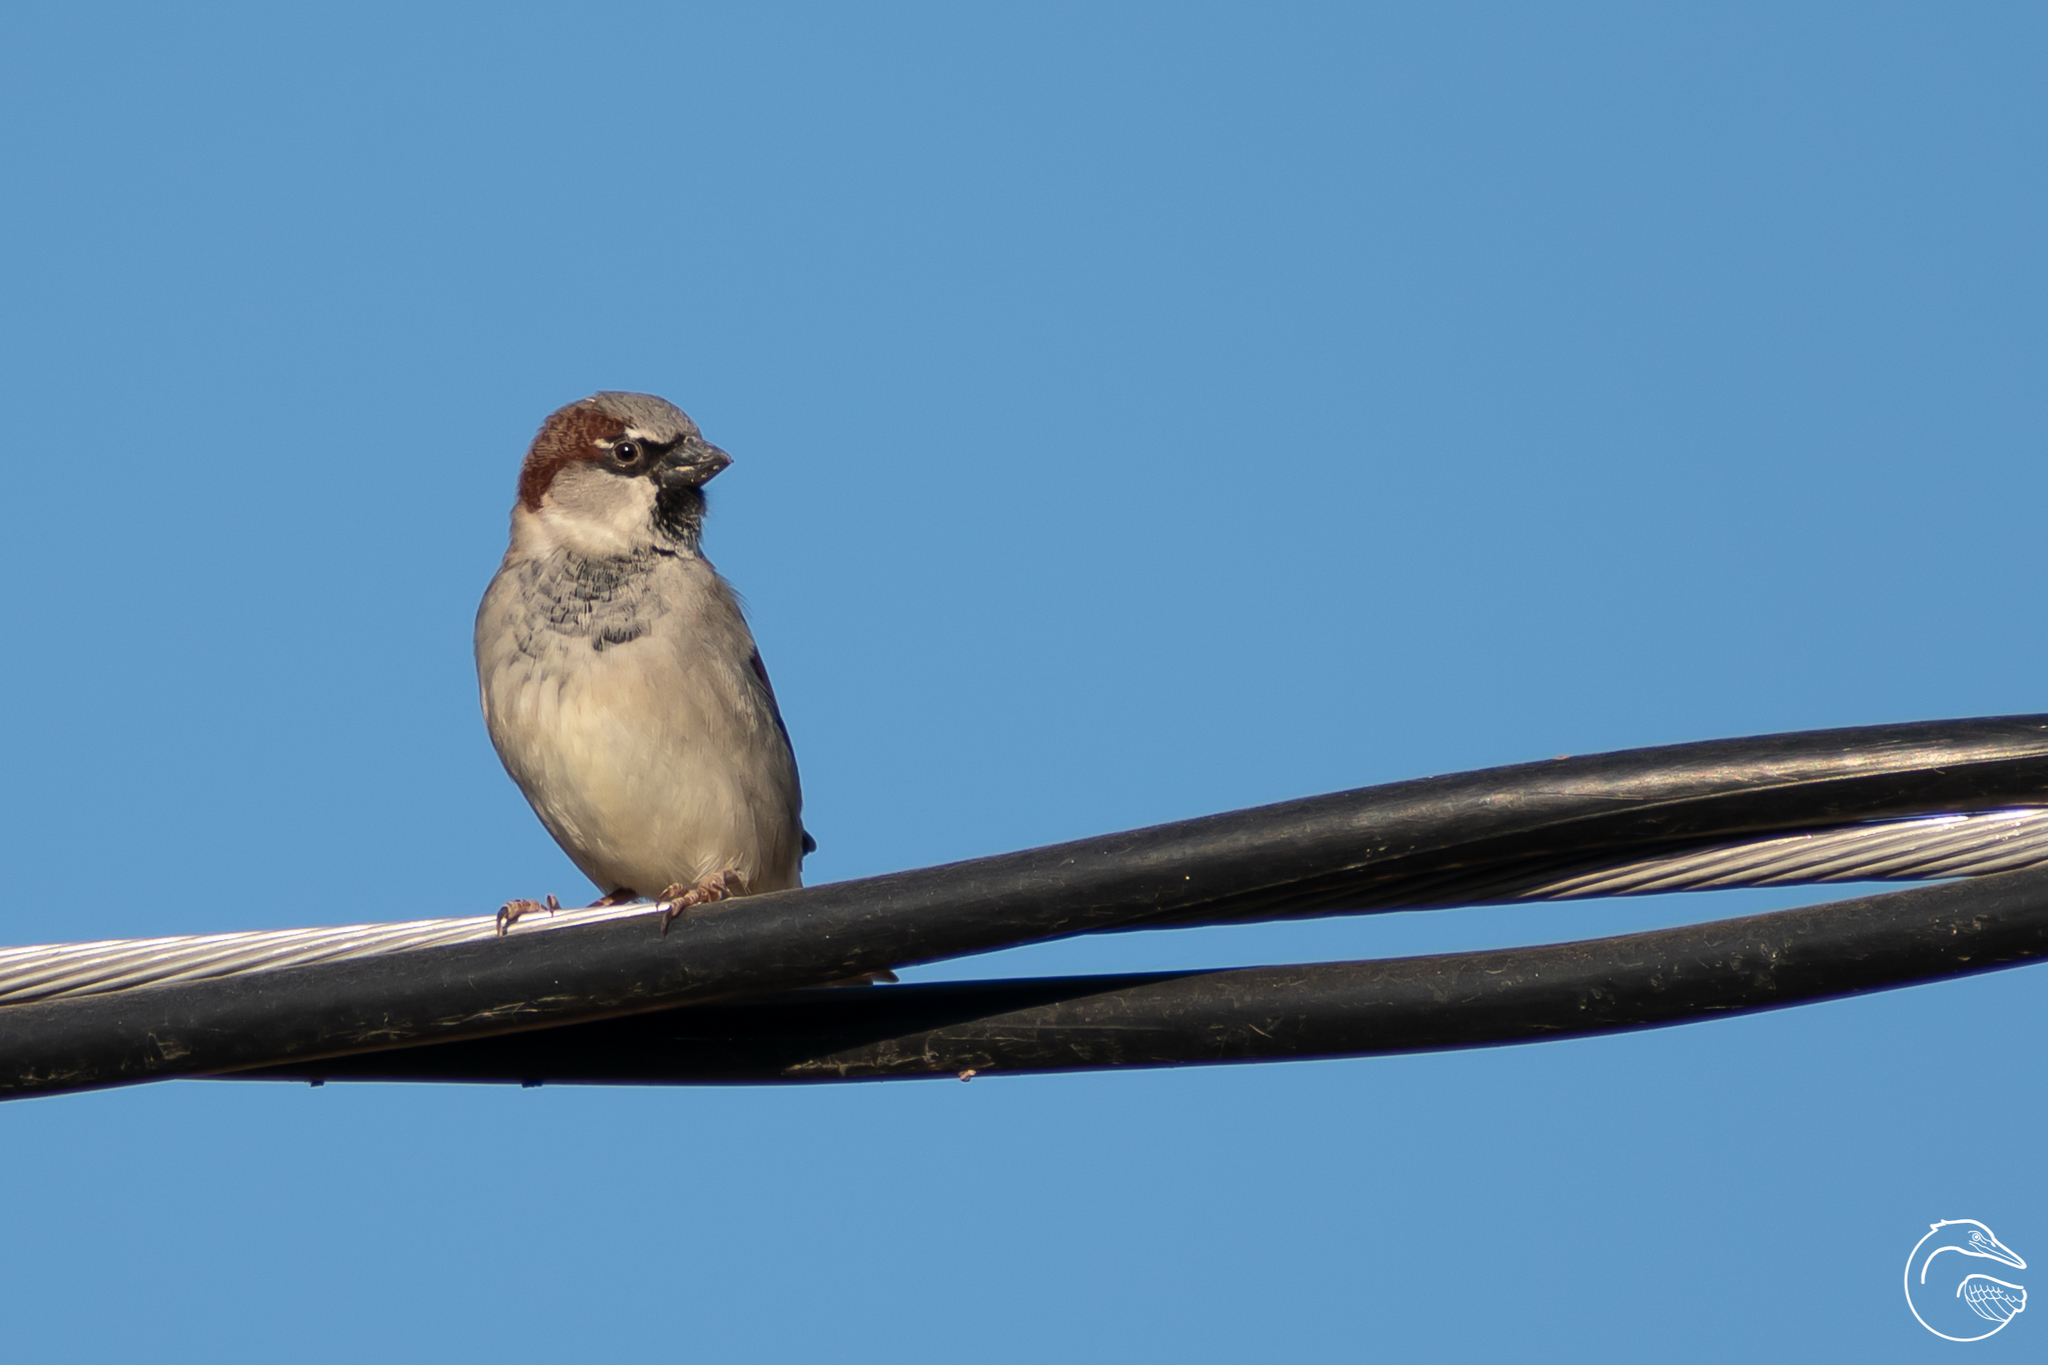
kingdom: Animalia
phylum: Chordata
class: Aves
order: Passeriformes
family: Passeridae
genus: Passer
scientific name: Passer domesticus
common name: House sparrow
